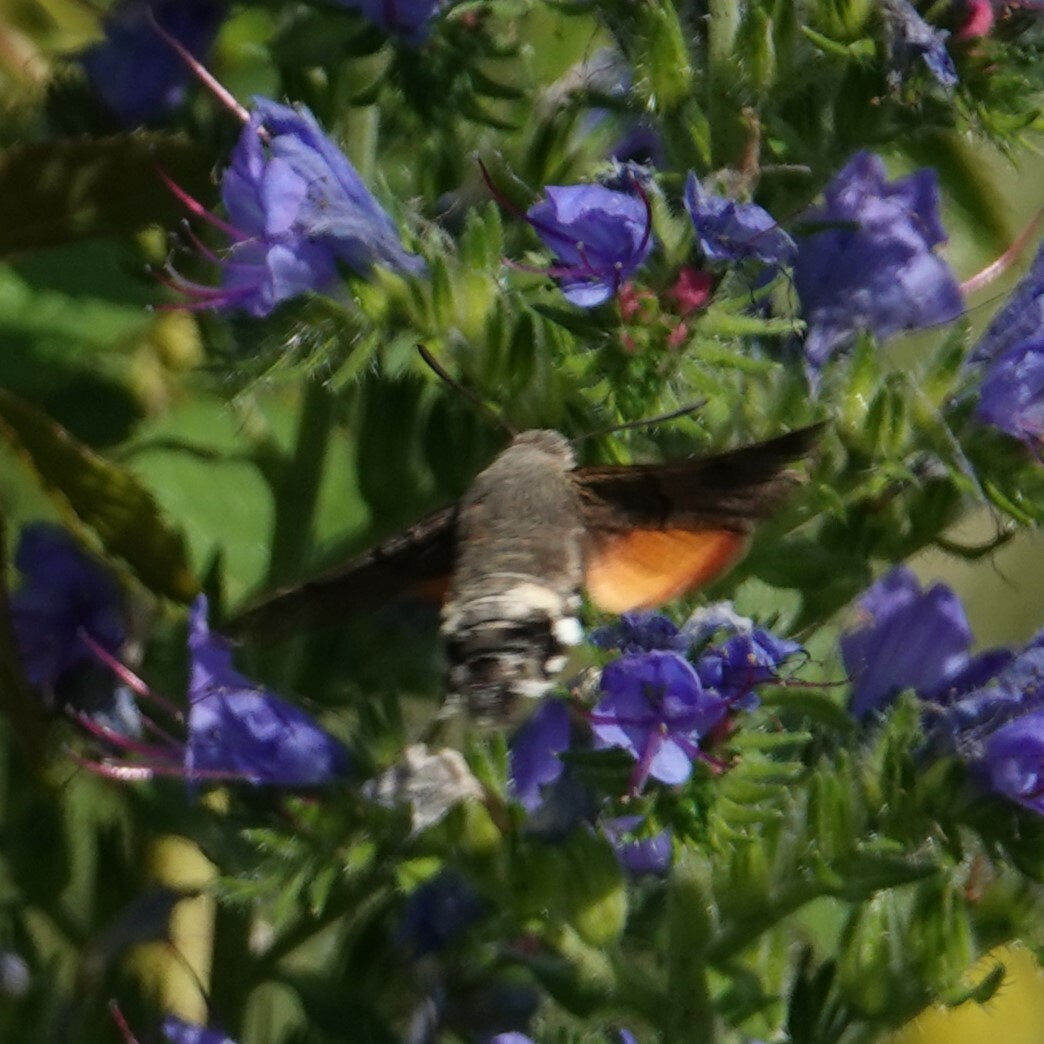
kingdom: Animalia
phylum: Arthropoda
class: Insecta
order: Lepidoptera
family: Sphingidae
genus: Macroglossum
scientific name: Macroglossum stellatarum
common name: Humming-bird hawk-moth
